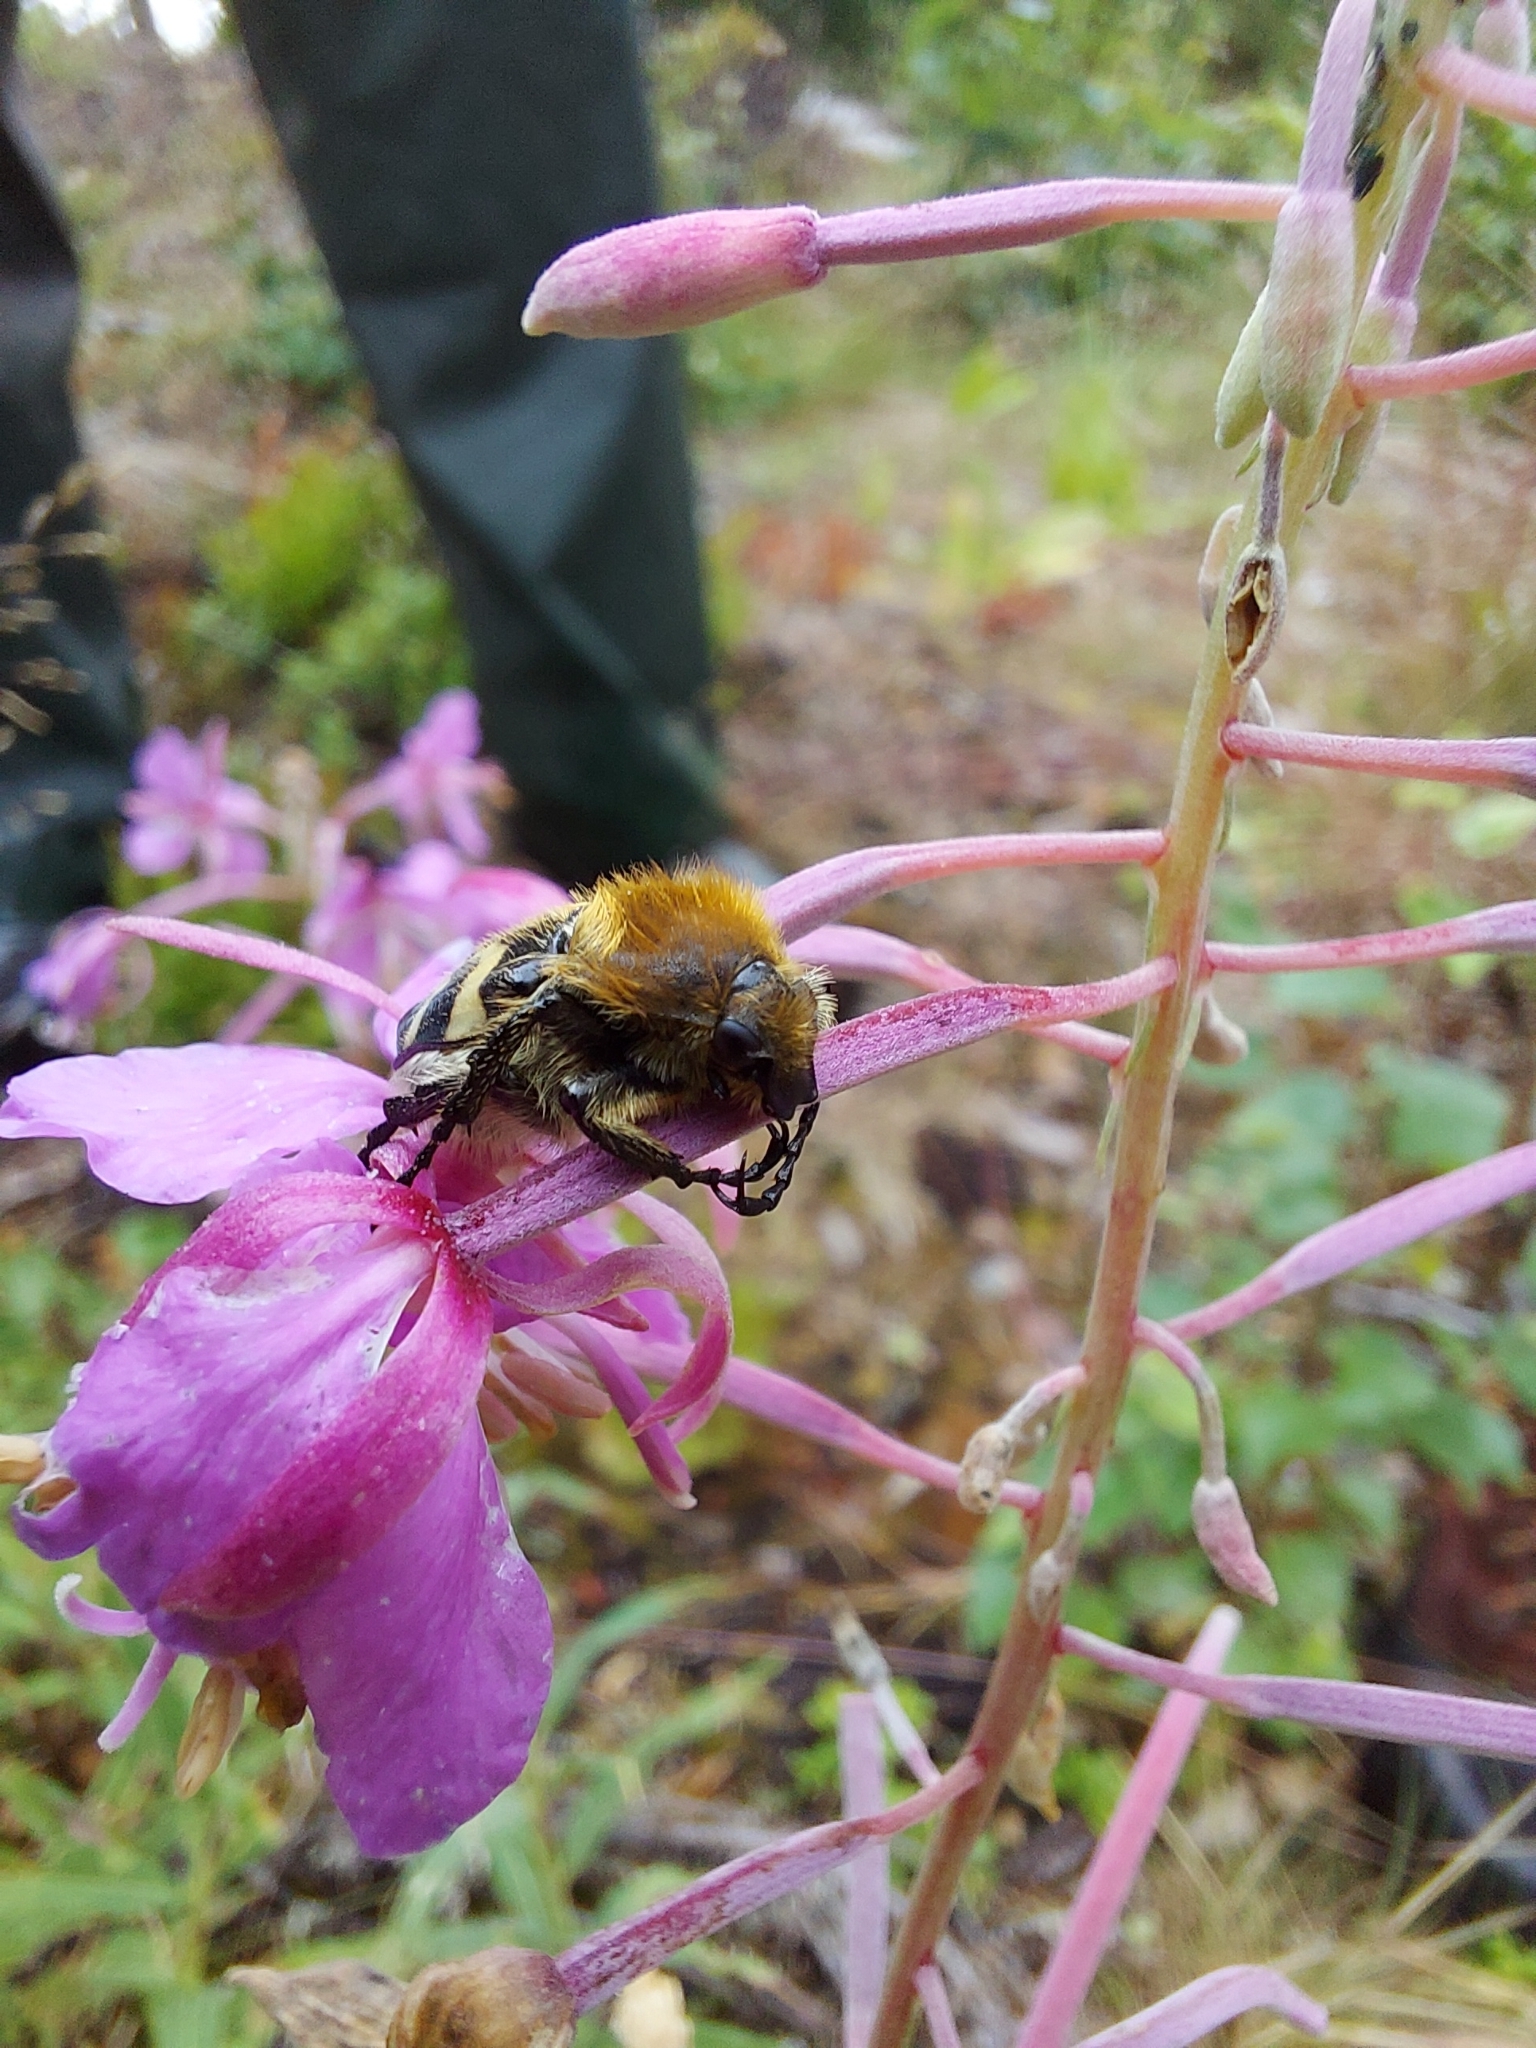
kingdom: Animalia
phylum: Arthropoda
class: Insecta
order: Coleoptera
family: Scarabaeidae
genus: Trichius
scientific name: Trichius fasciatus
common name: Bee beetle
